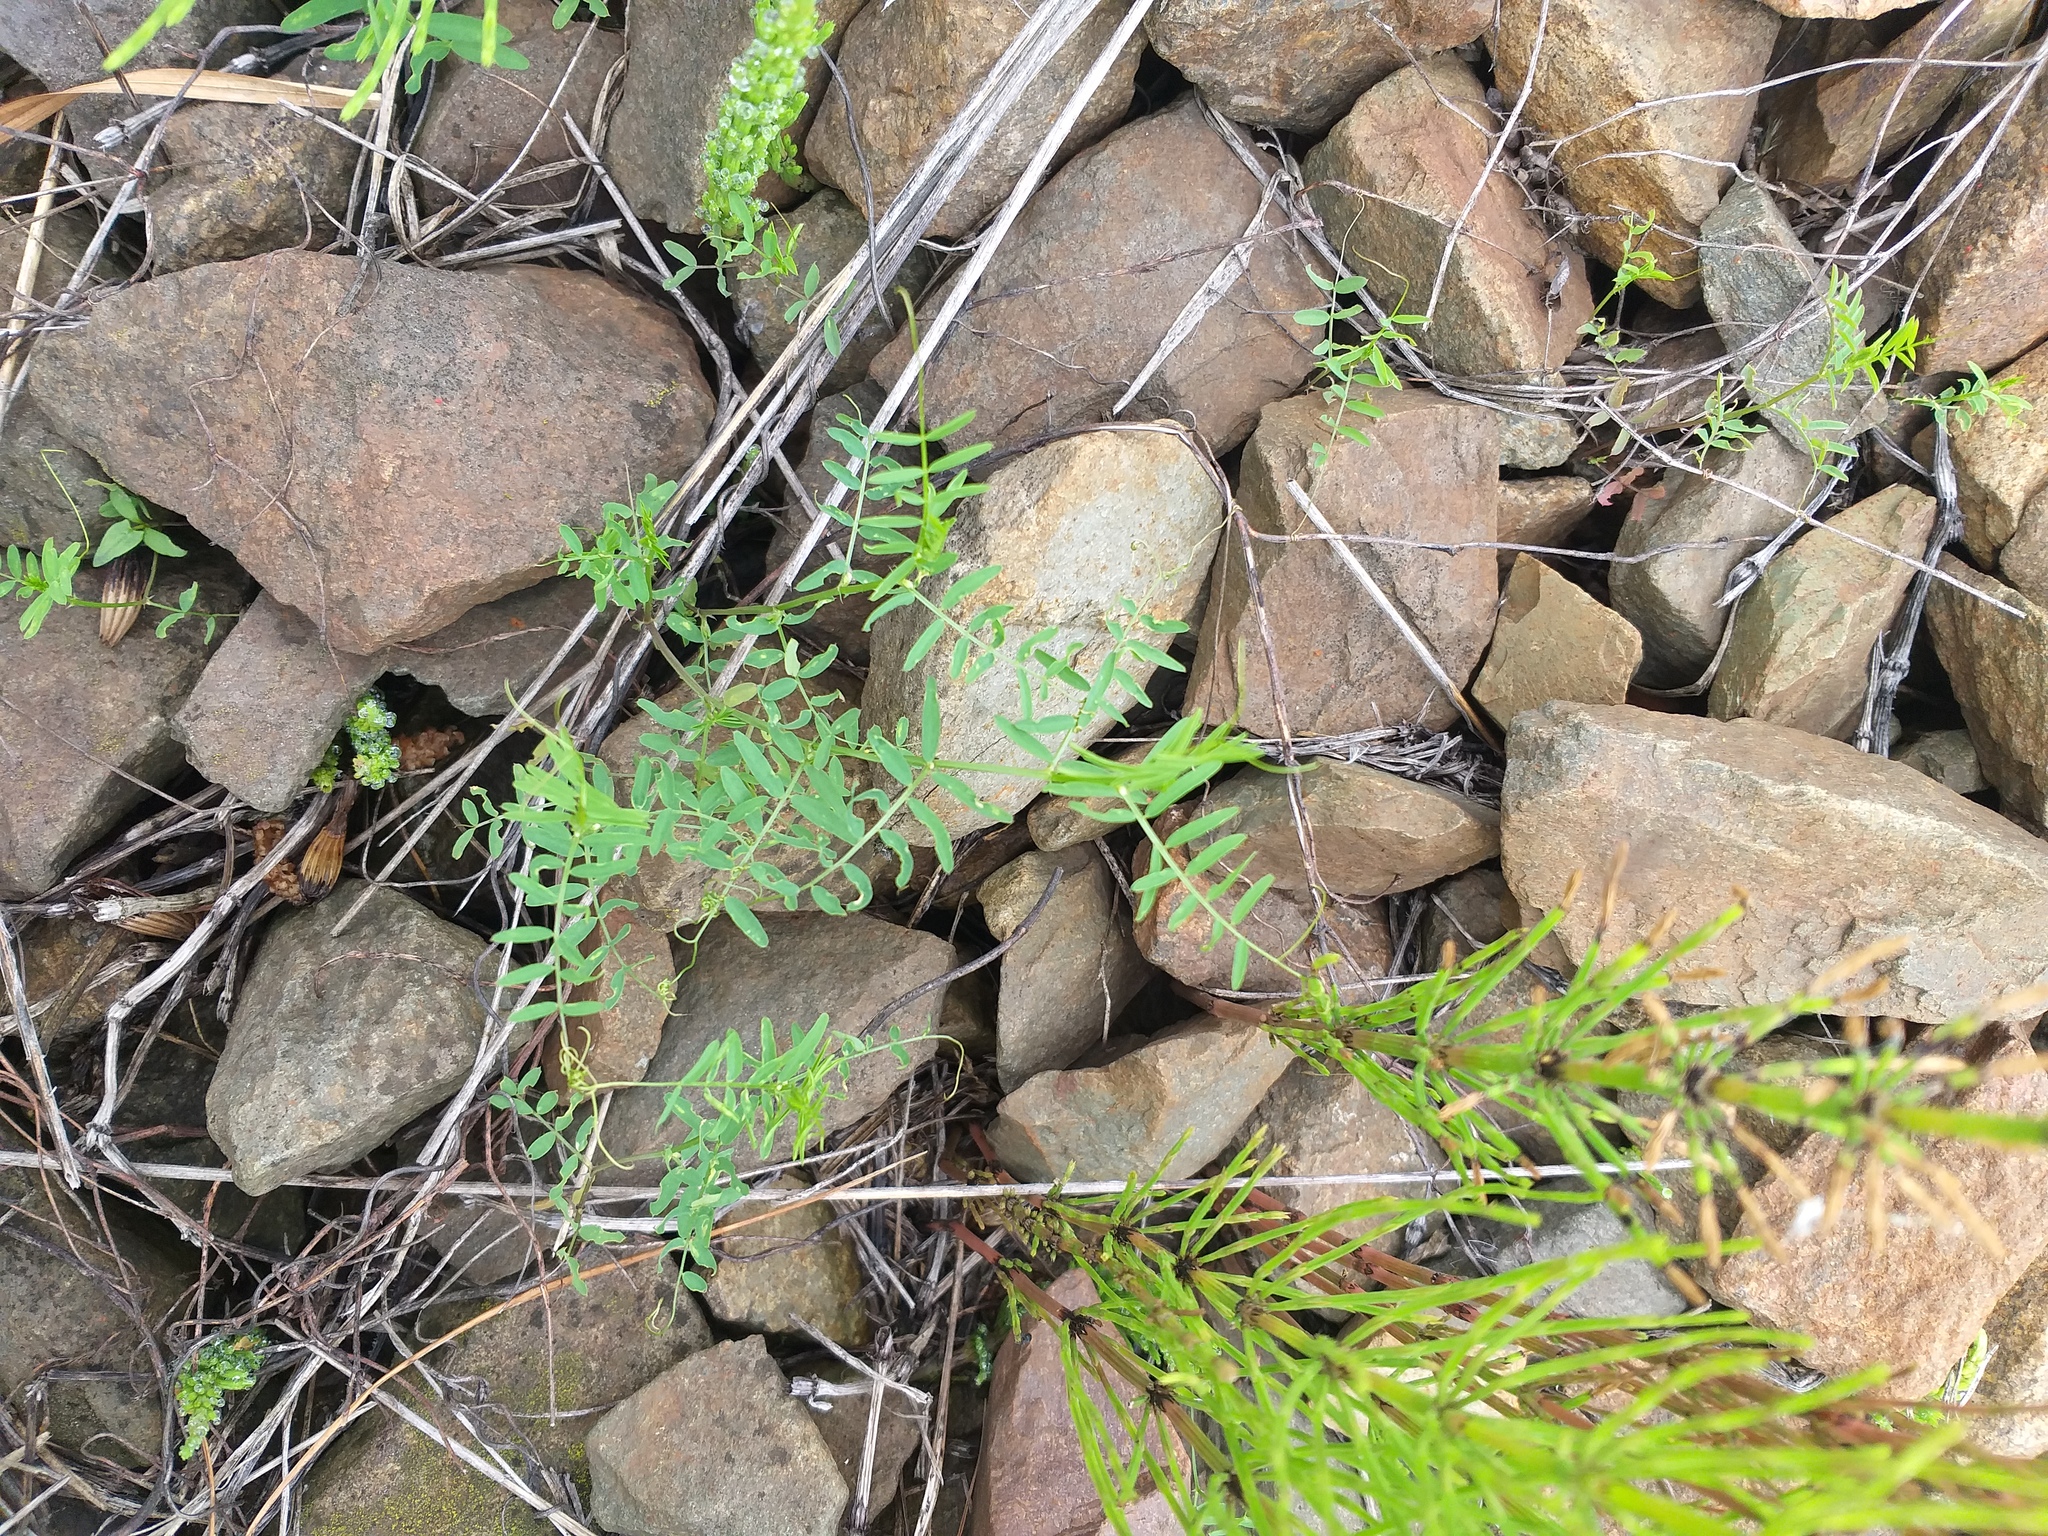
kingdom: Plantae
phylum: Tracheophyta
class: Magnoliopsida
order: Fabales
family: Fabaceae
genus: Vicia
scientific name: Vicia hirsuta
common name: Tiny vetch
